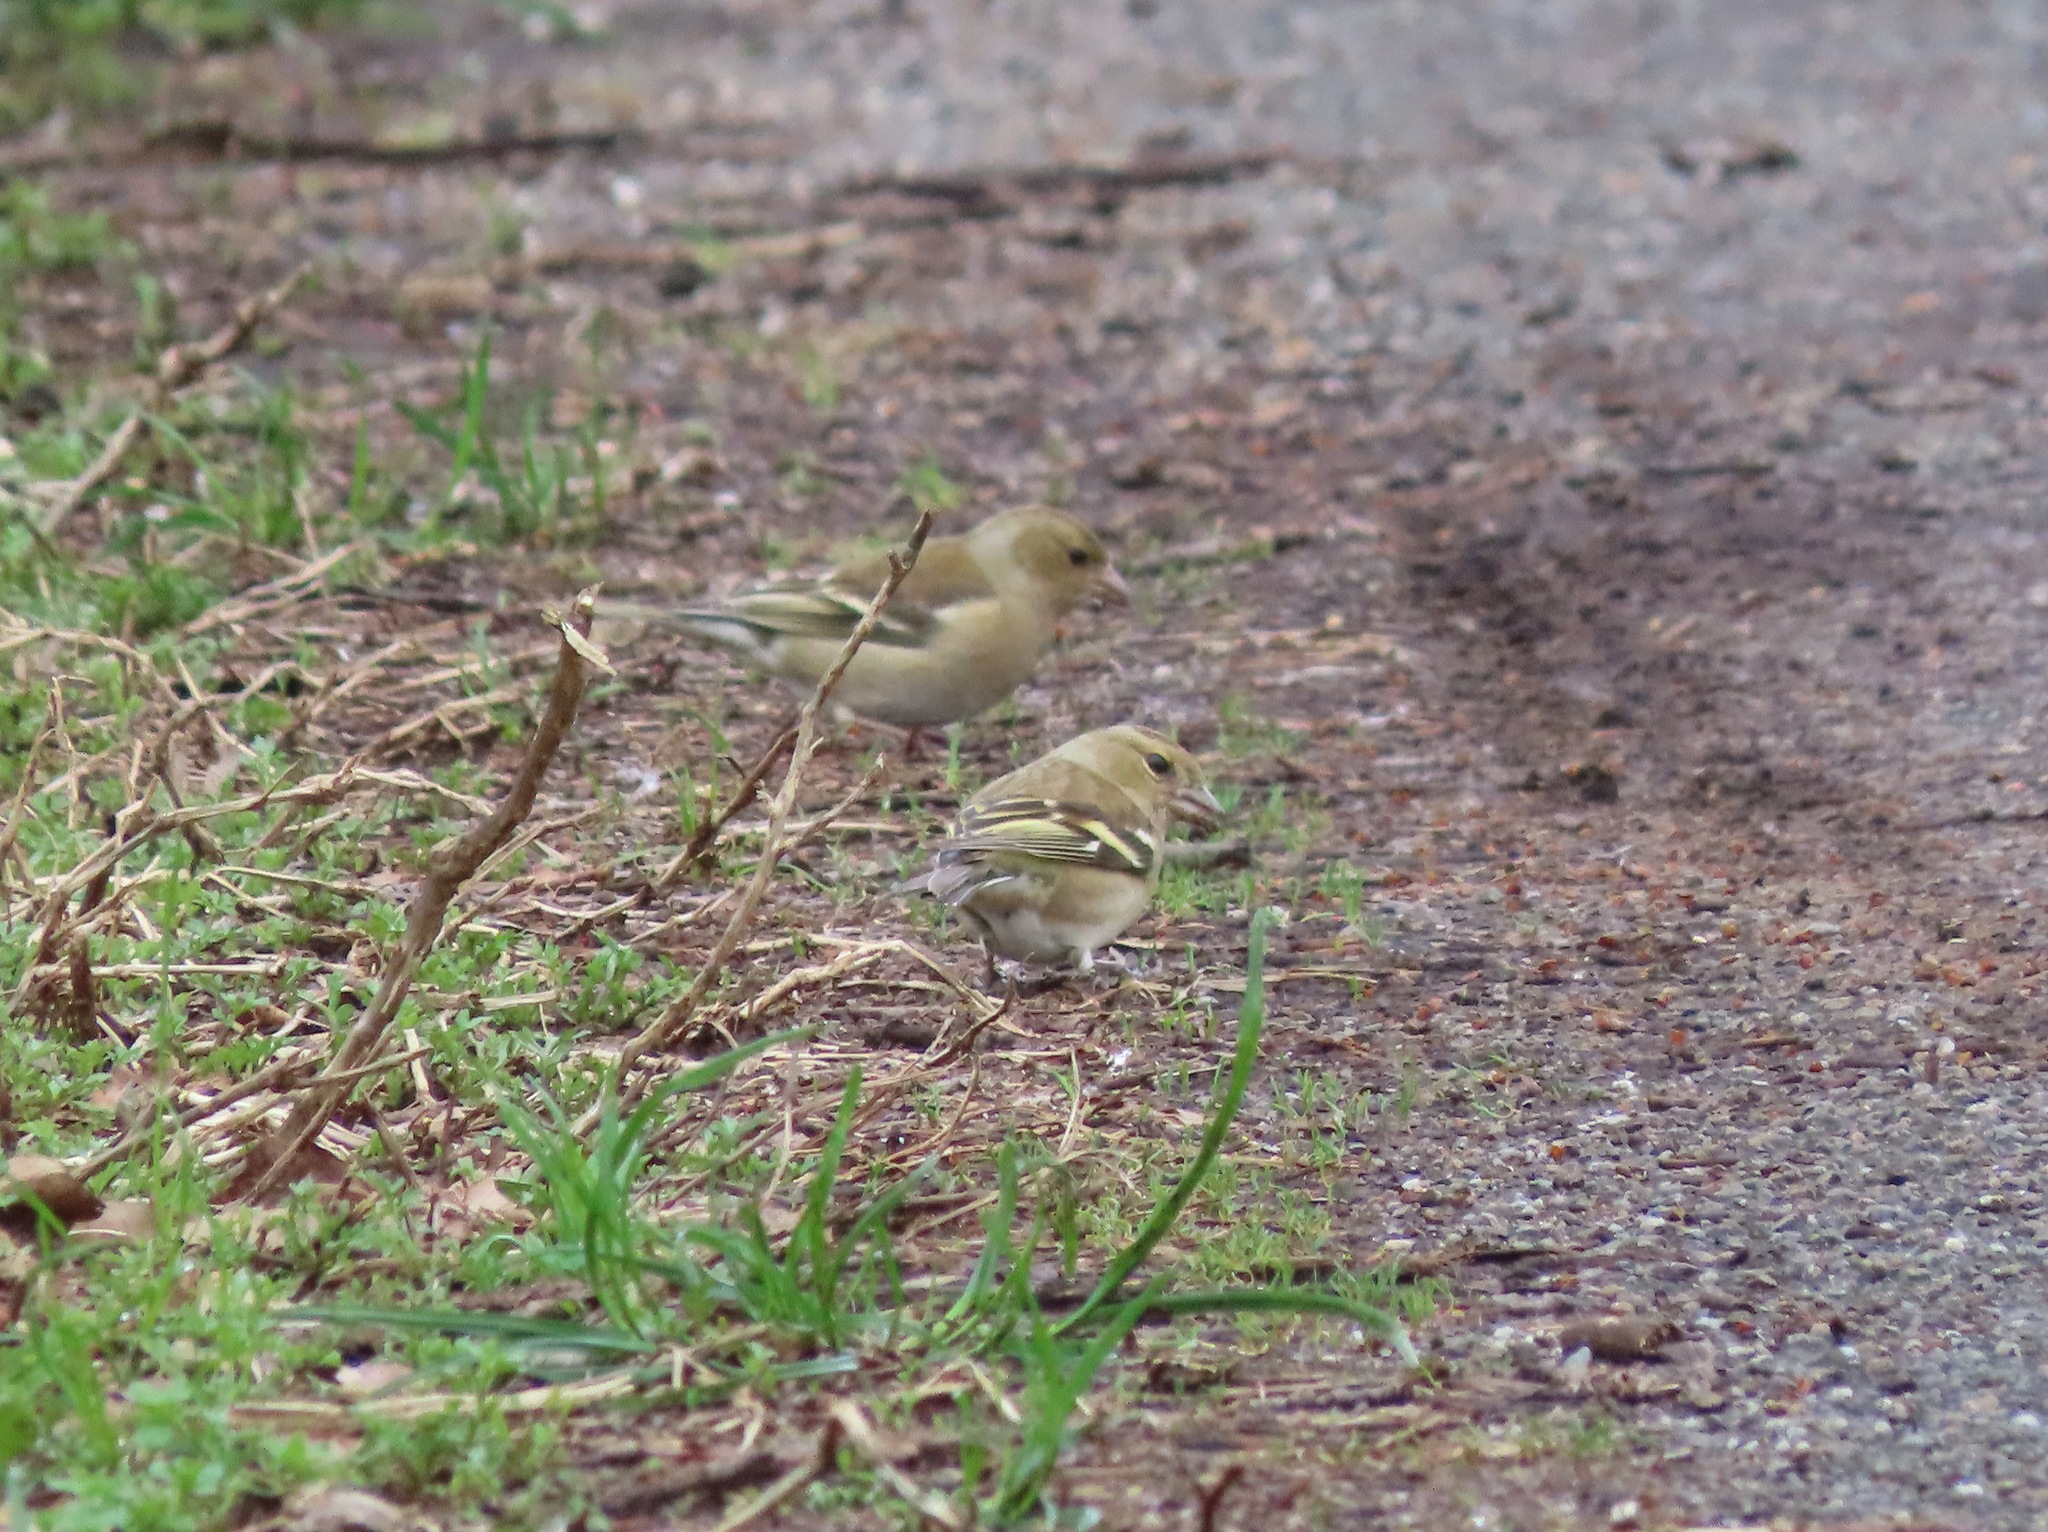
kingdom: Animalia
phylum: Chordata
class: Aves
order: Passeriformes
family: Fringillidae
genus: Fringilla
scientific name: Fringilla coelebs
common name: Common chaffinch
